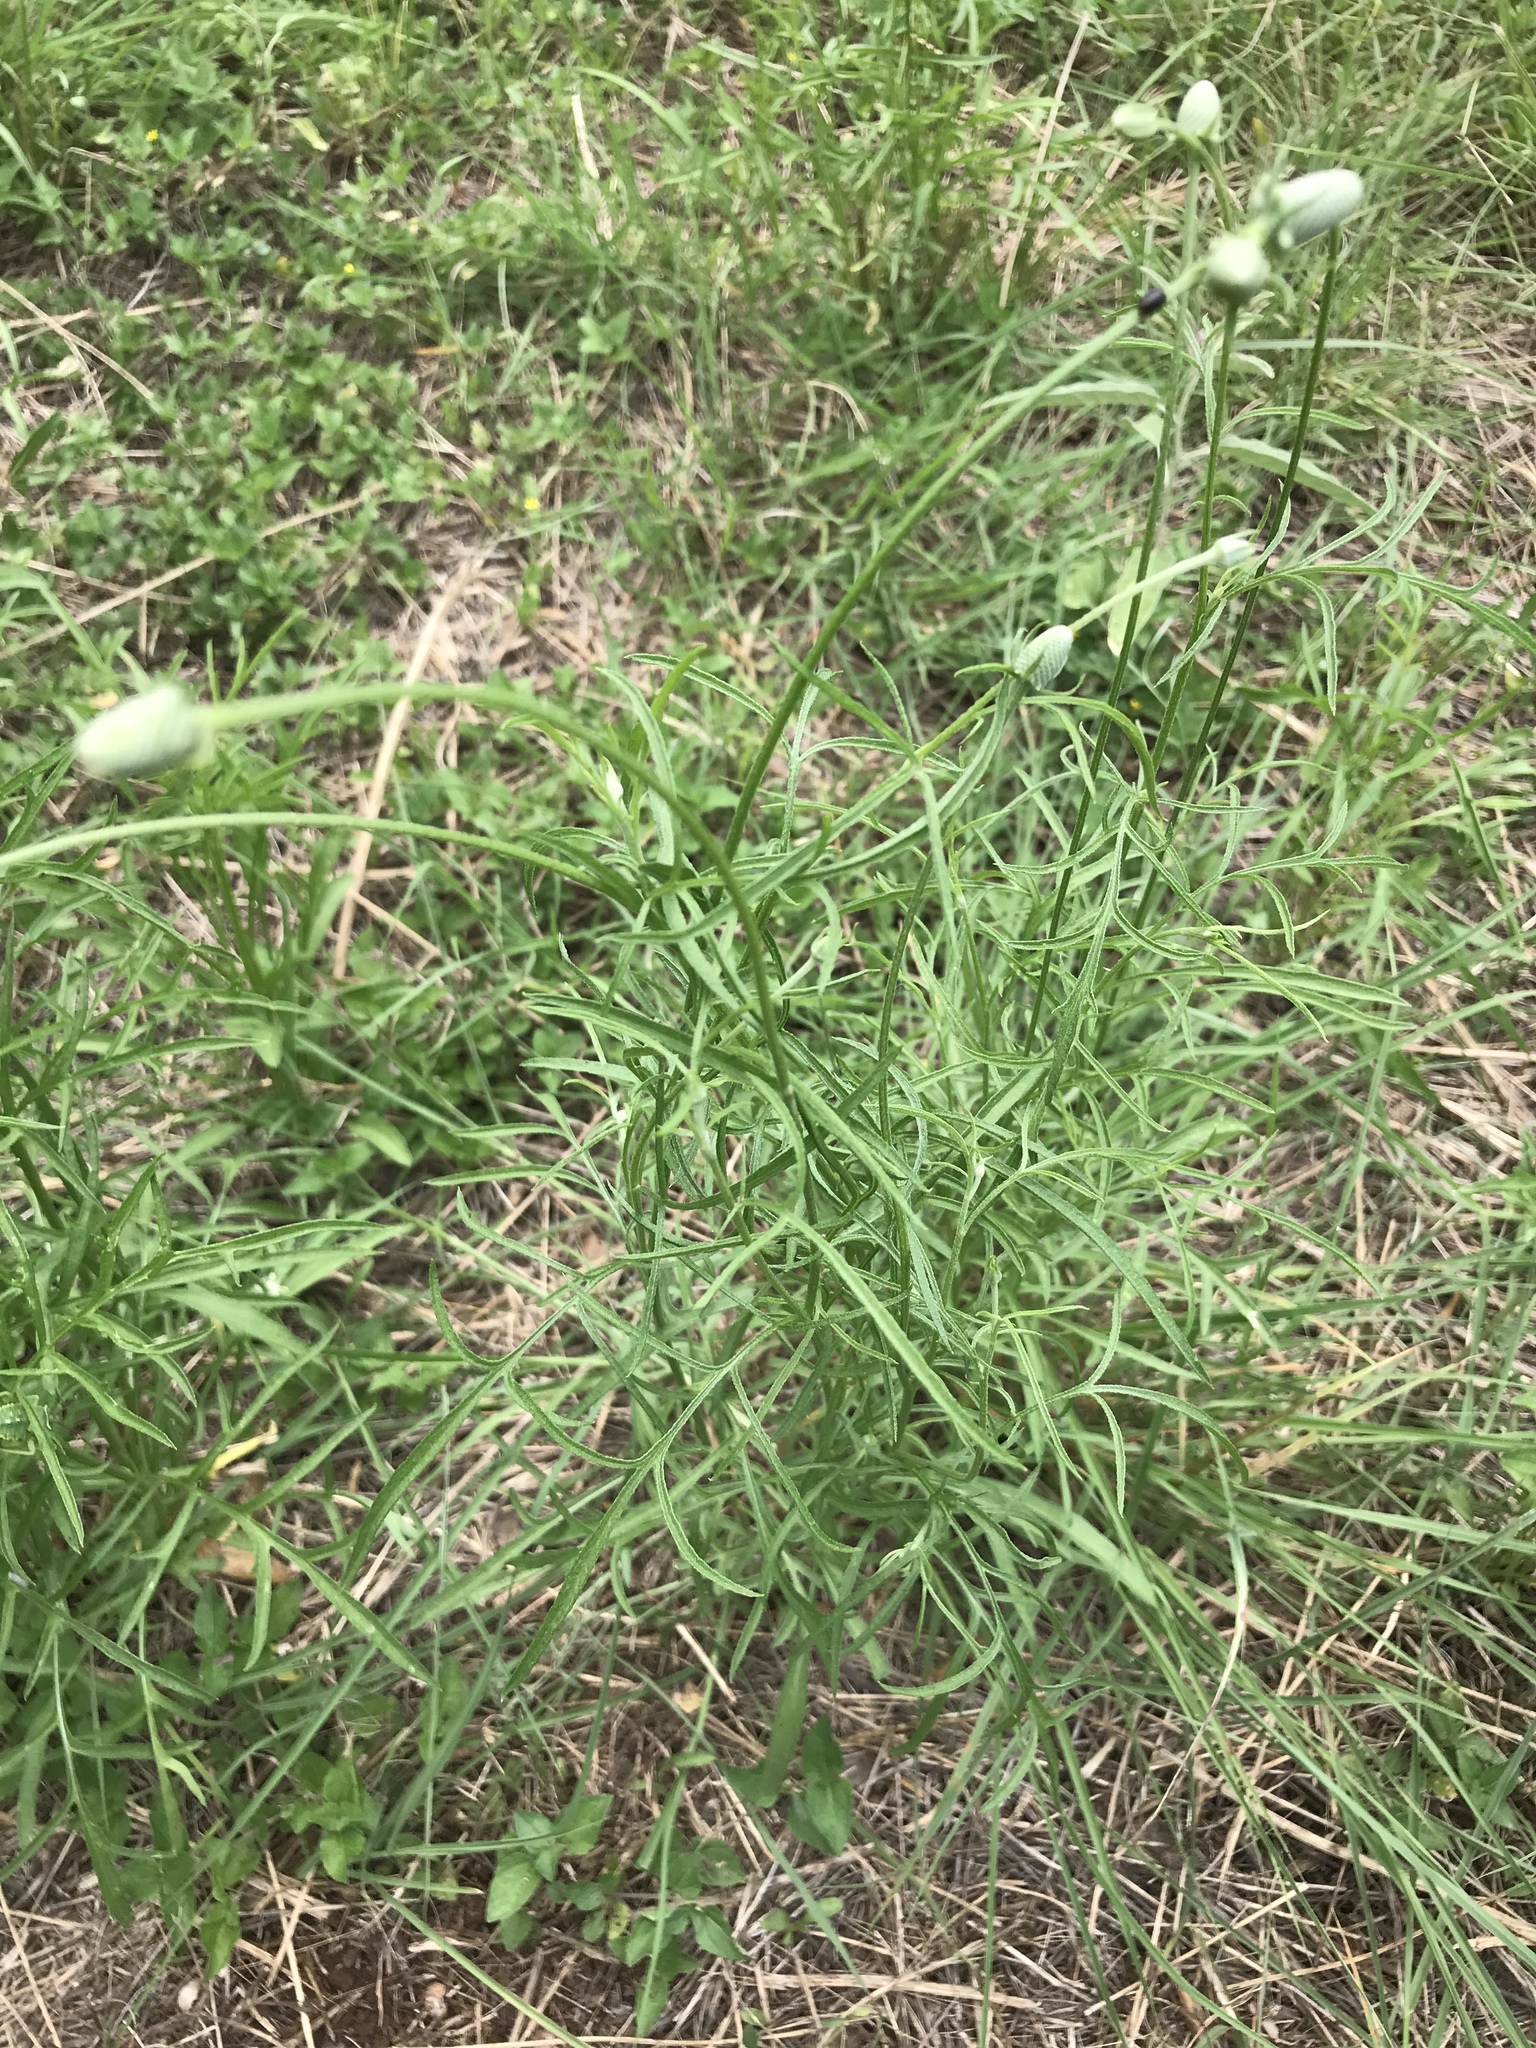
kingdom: Plantae
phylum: Tracheophyta
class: Magnoliopsida
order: Asterales
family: Asteraceae
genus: Ratibida
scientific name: Ratibida columnifera
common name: Prairie coneflower
